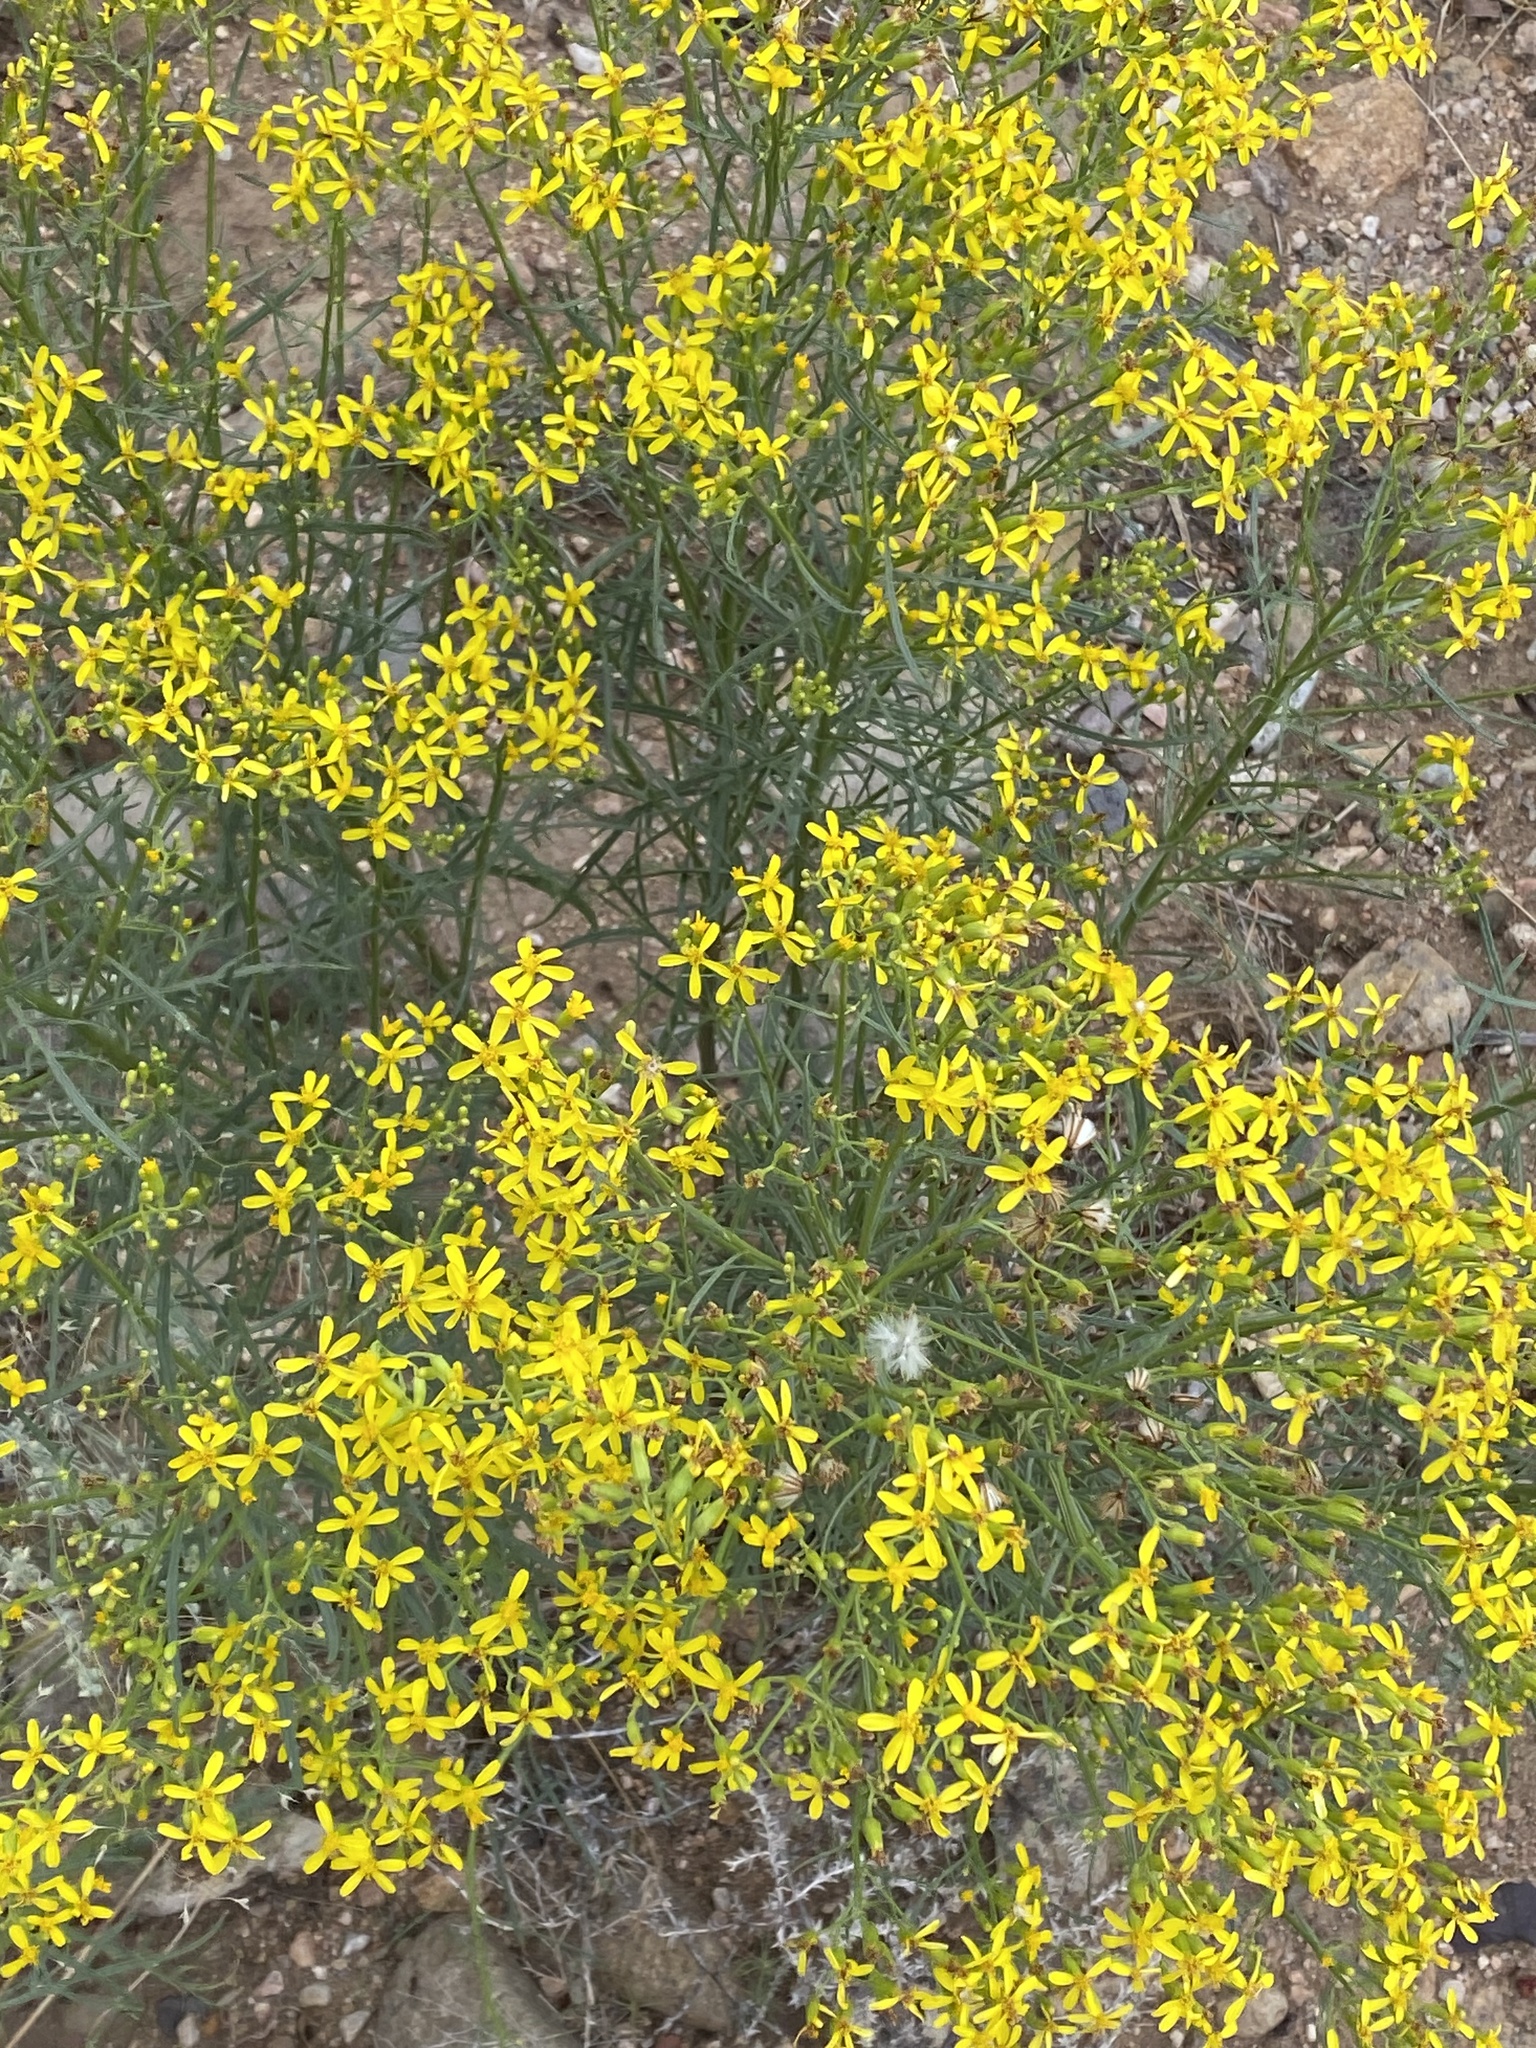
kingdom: Plantae
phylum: Tracheophyta
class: Magnoliopsida
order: Asterales
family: Asteraceae
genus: Senecio
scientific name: Senecio spartioides
